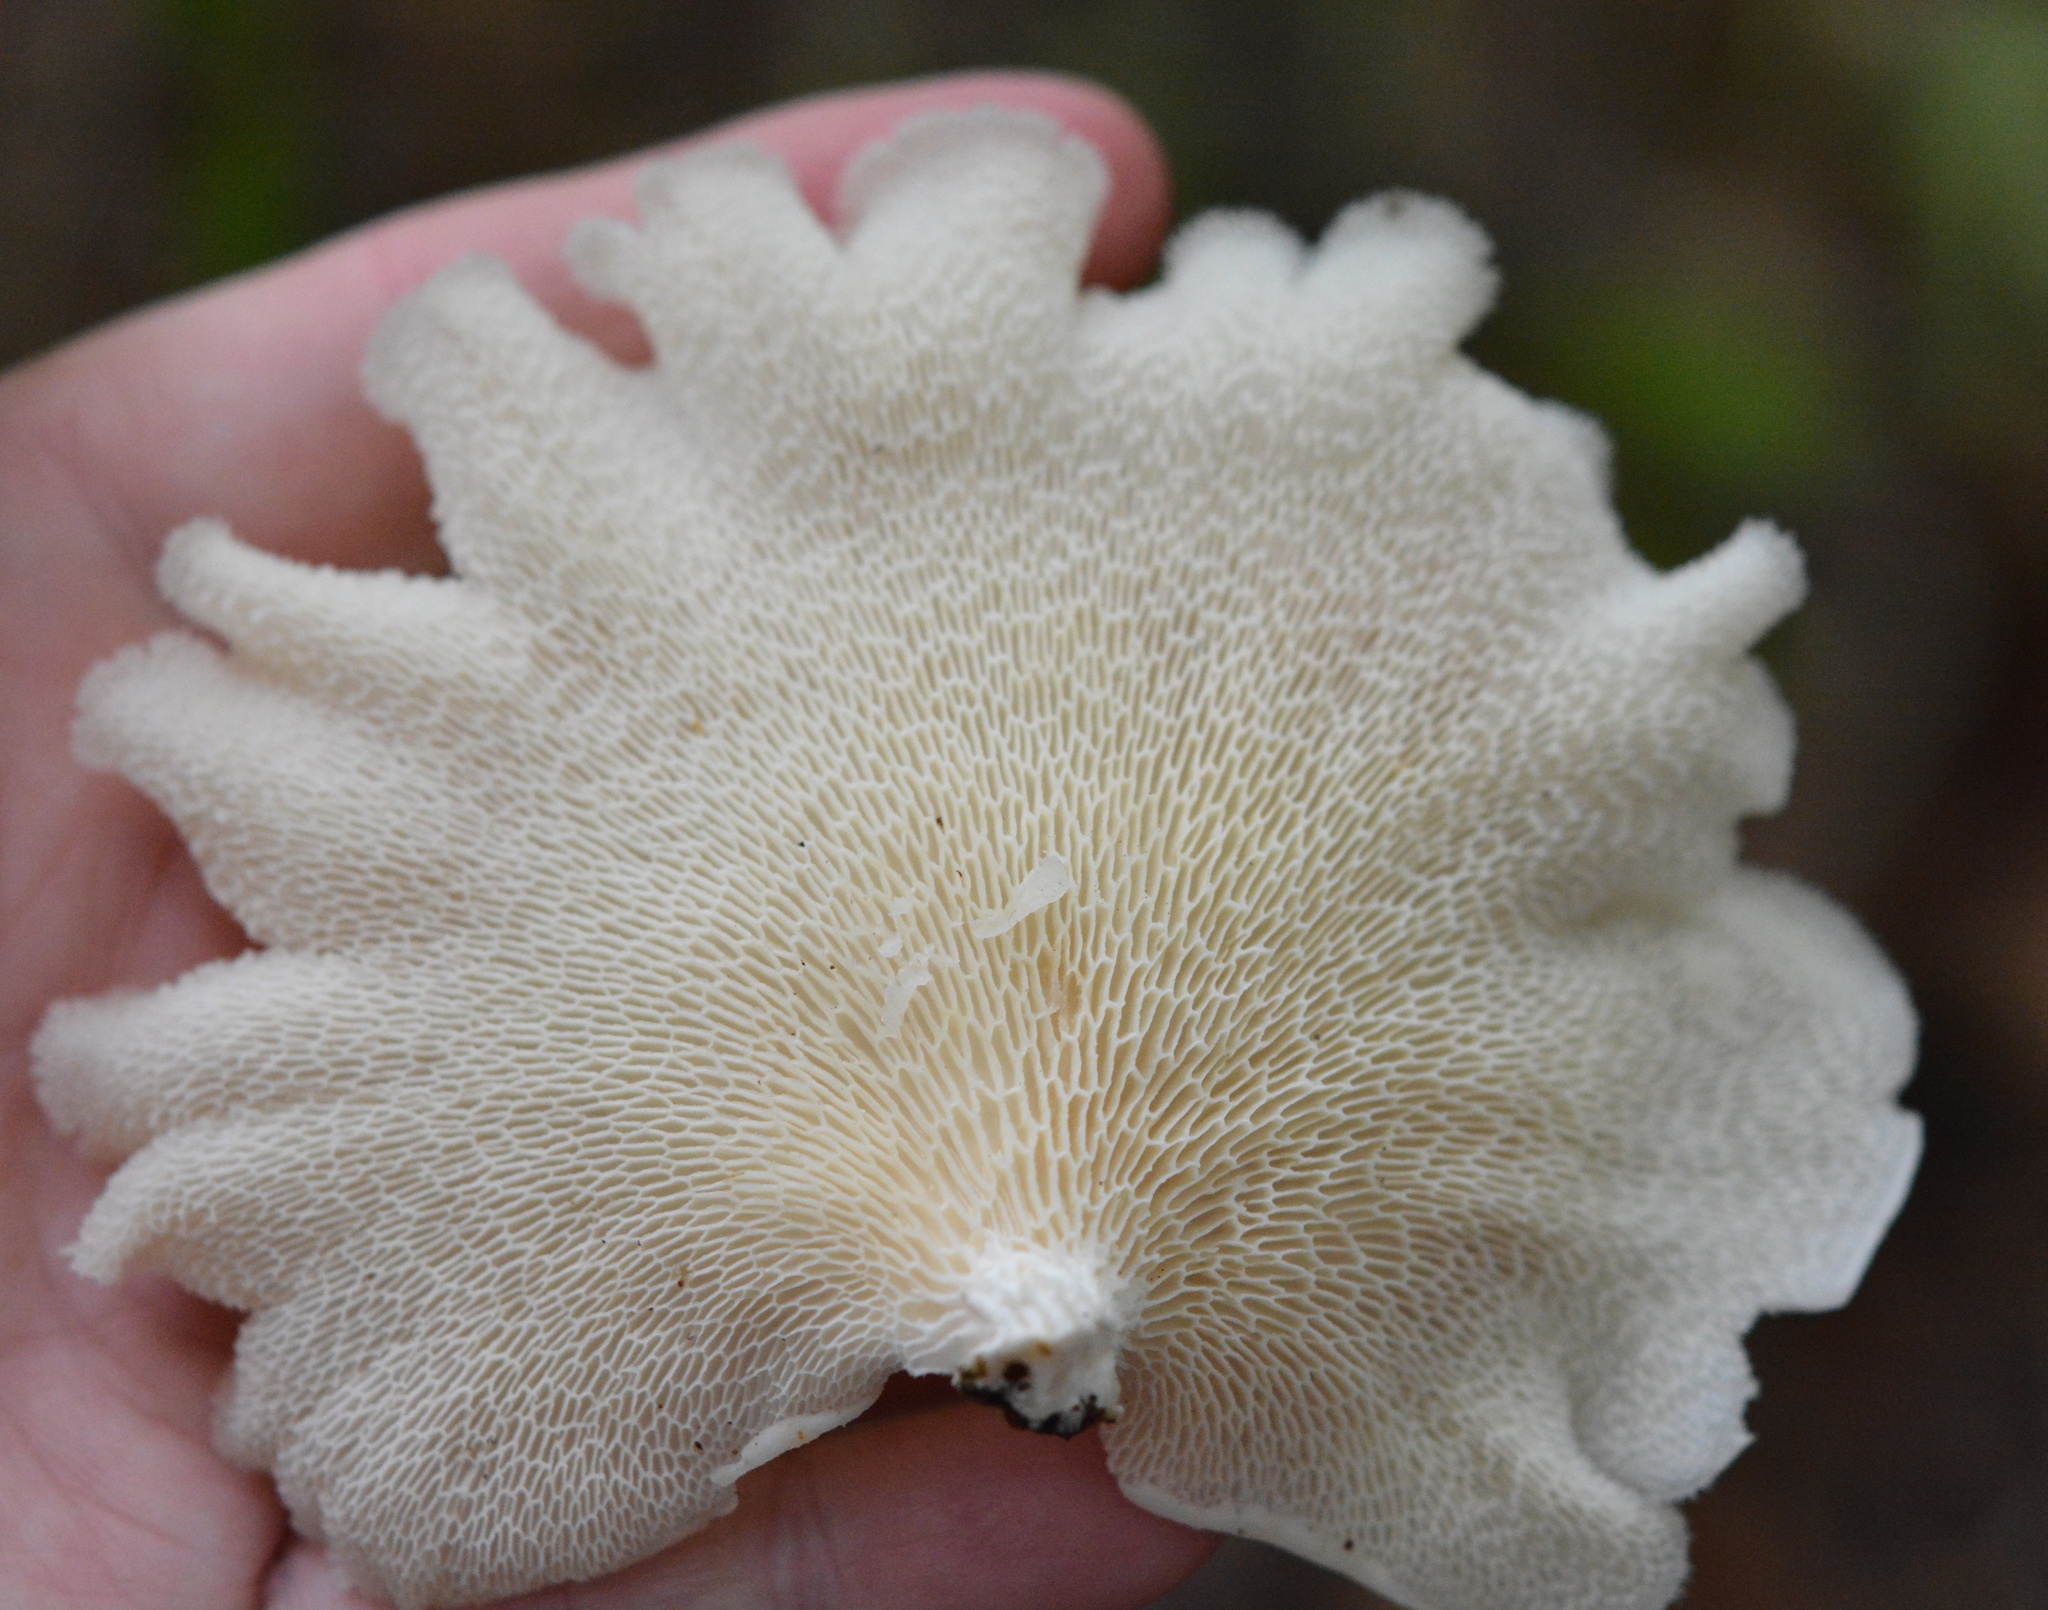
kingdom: Fungi
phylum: Basidiomycota
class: Agaricomycetes
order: Polyporales
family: Polyporaceae
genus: Favolus
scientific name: Favolus tenuiculus
